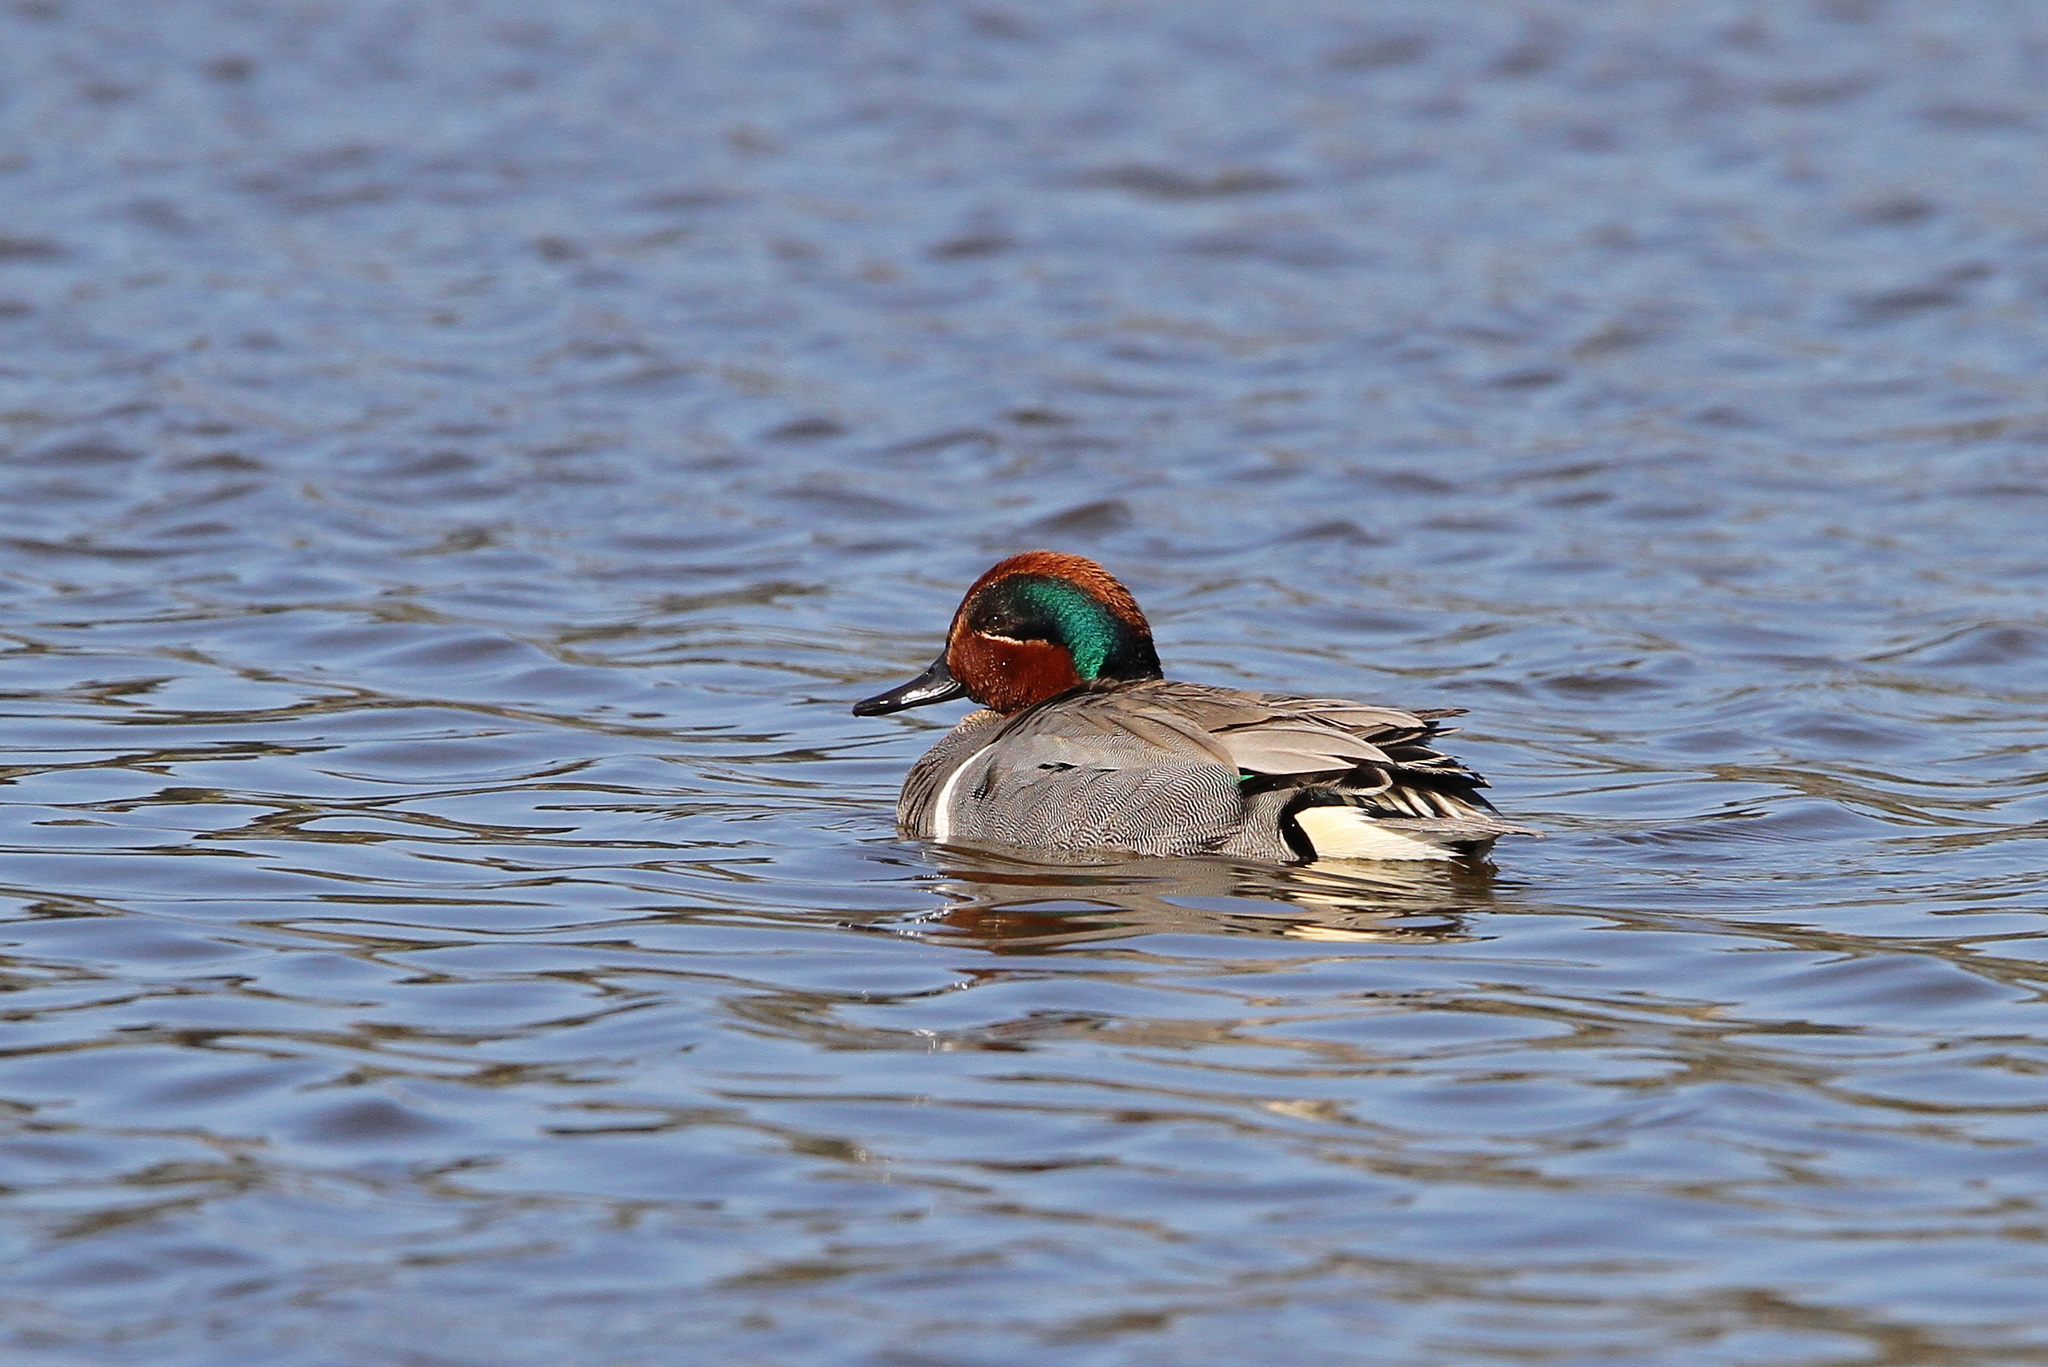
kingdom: Animalia
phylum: Chordata
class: Aves
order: Anseriformes
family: Anatidae
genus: Anas
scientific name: Anas carolinensis
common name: Green-winged teal
